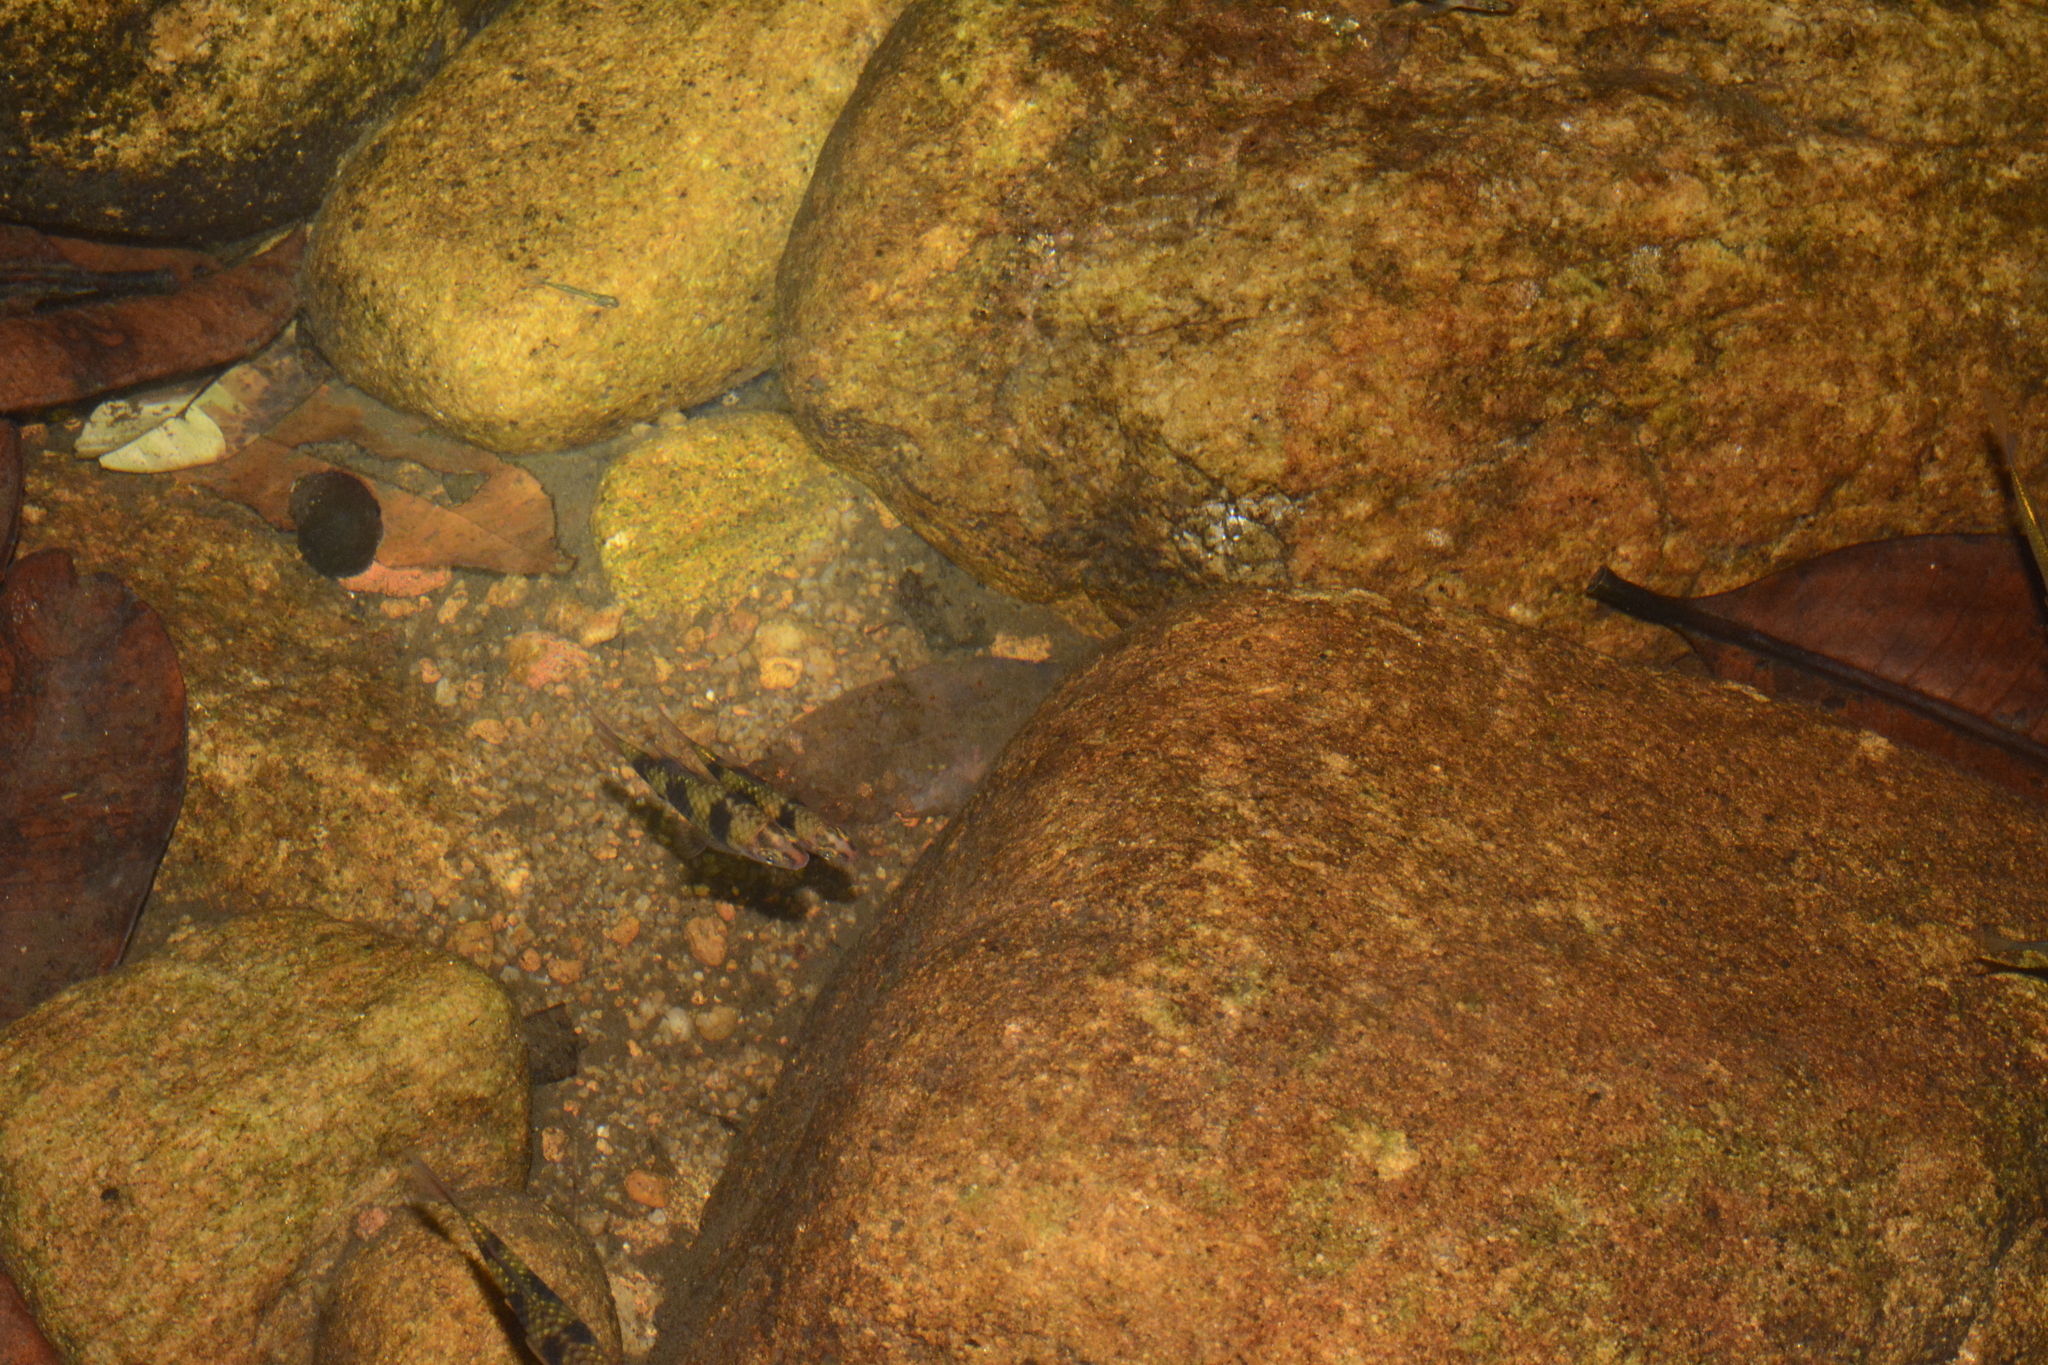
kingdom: Animalia
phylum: Chordata
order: Cypriniformes
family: Cyprinidae
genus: Pethia
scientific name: Pethia nigrofasciata
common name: Black ruby barb
